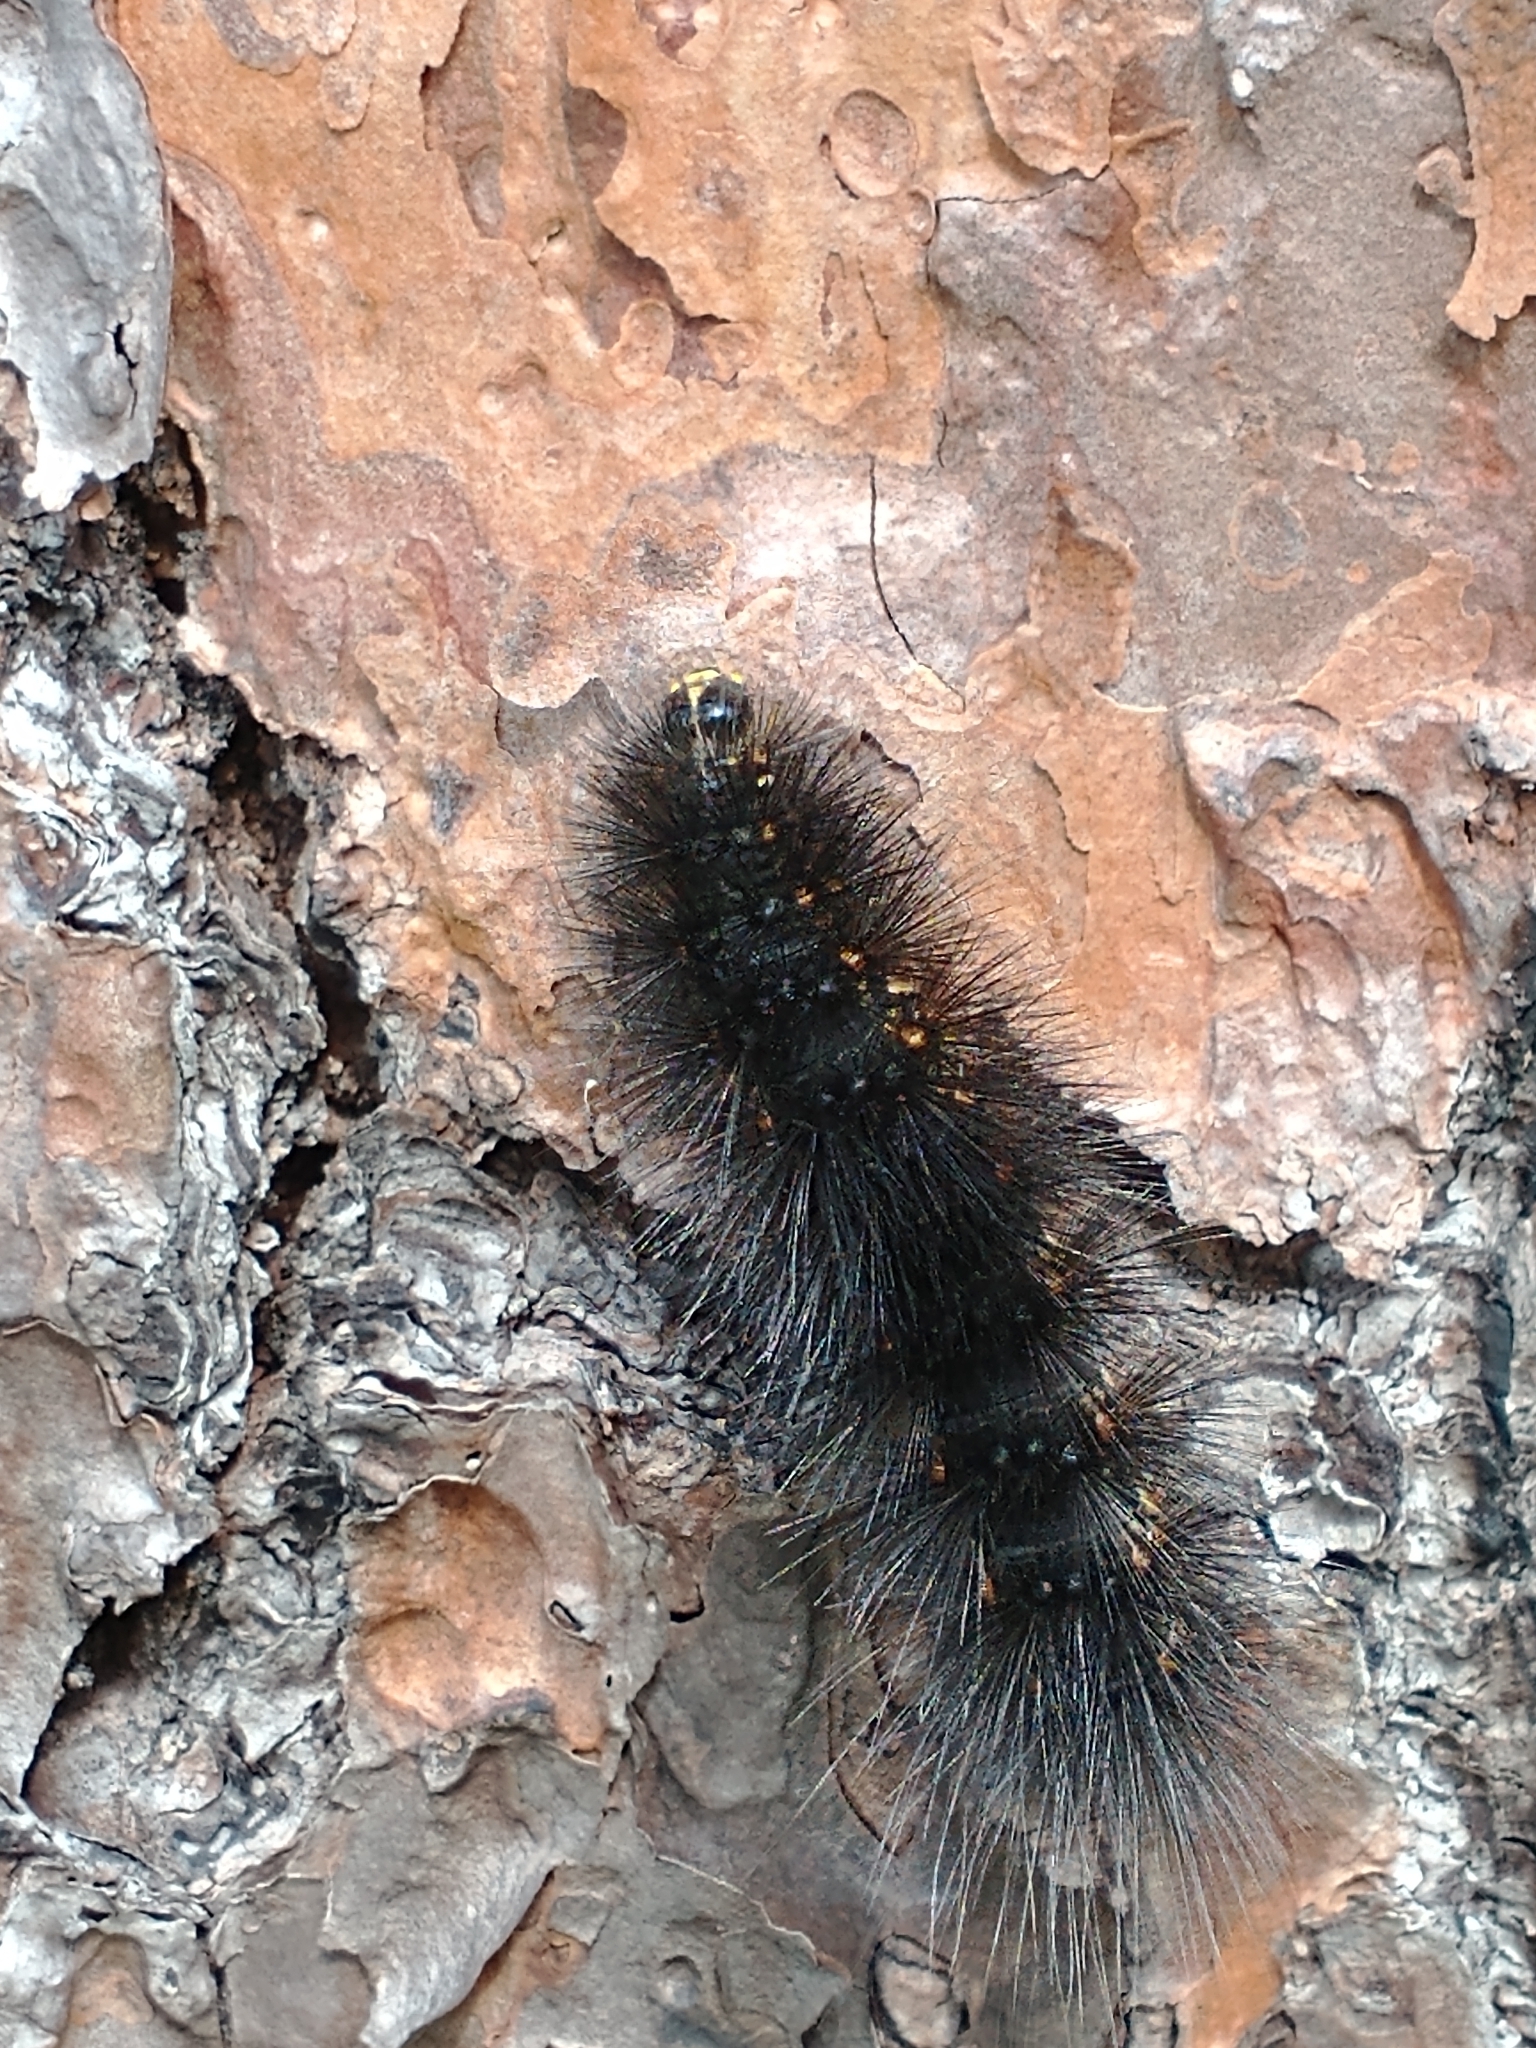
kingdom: Animalia
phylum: Arthropoda
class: Insecta
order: Lepidoptera
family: Erebidae
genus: Estigmene
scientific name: Estigmene acrea
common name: Salt marsh moth
